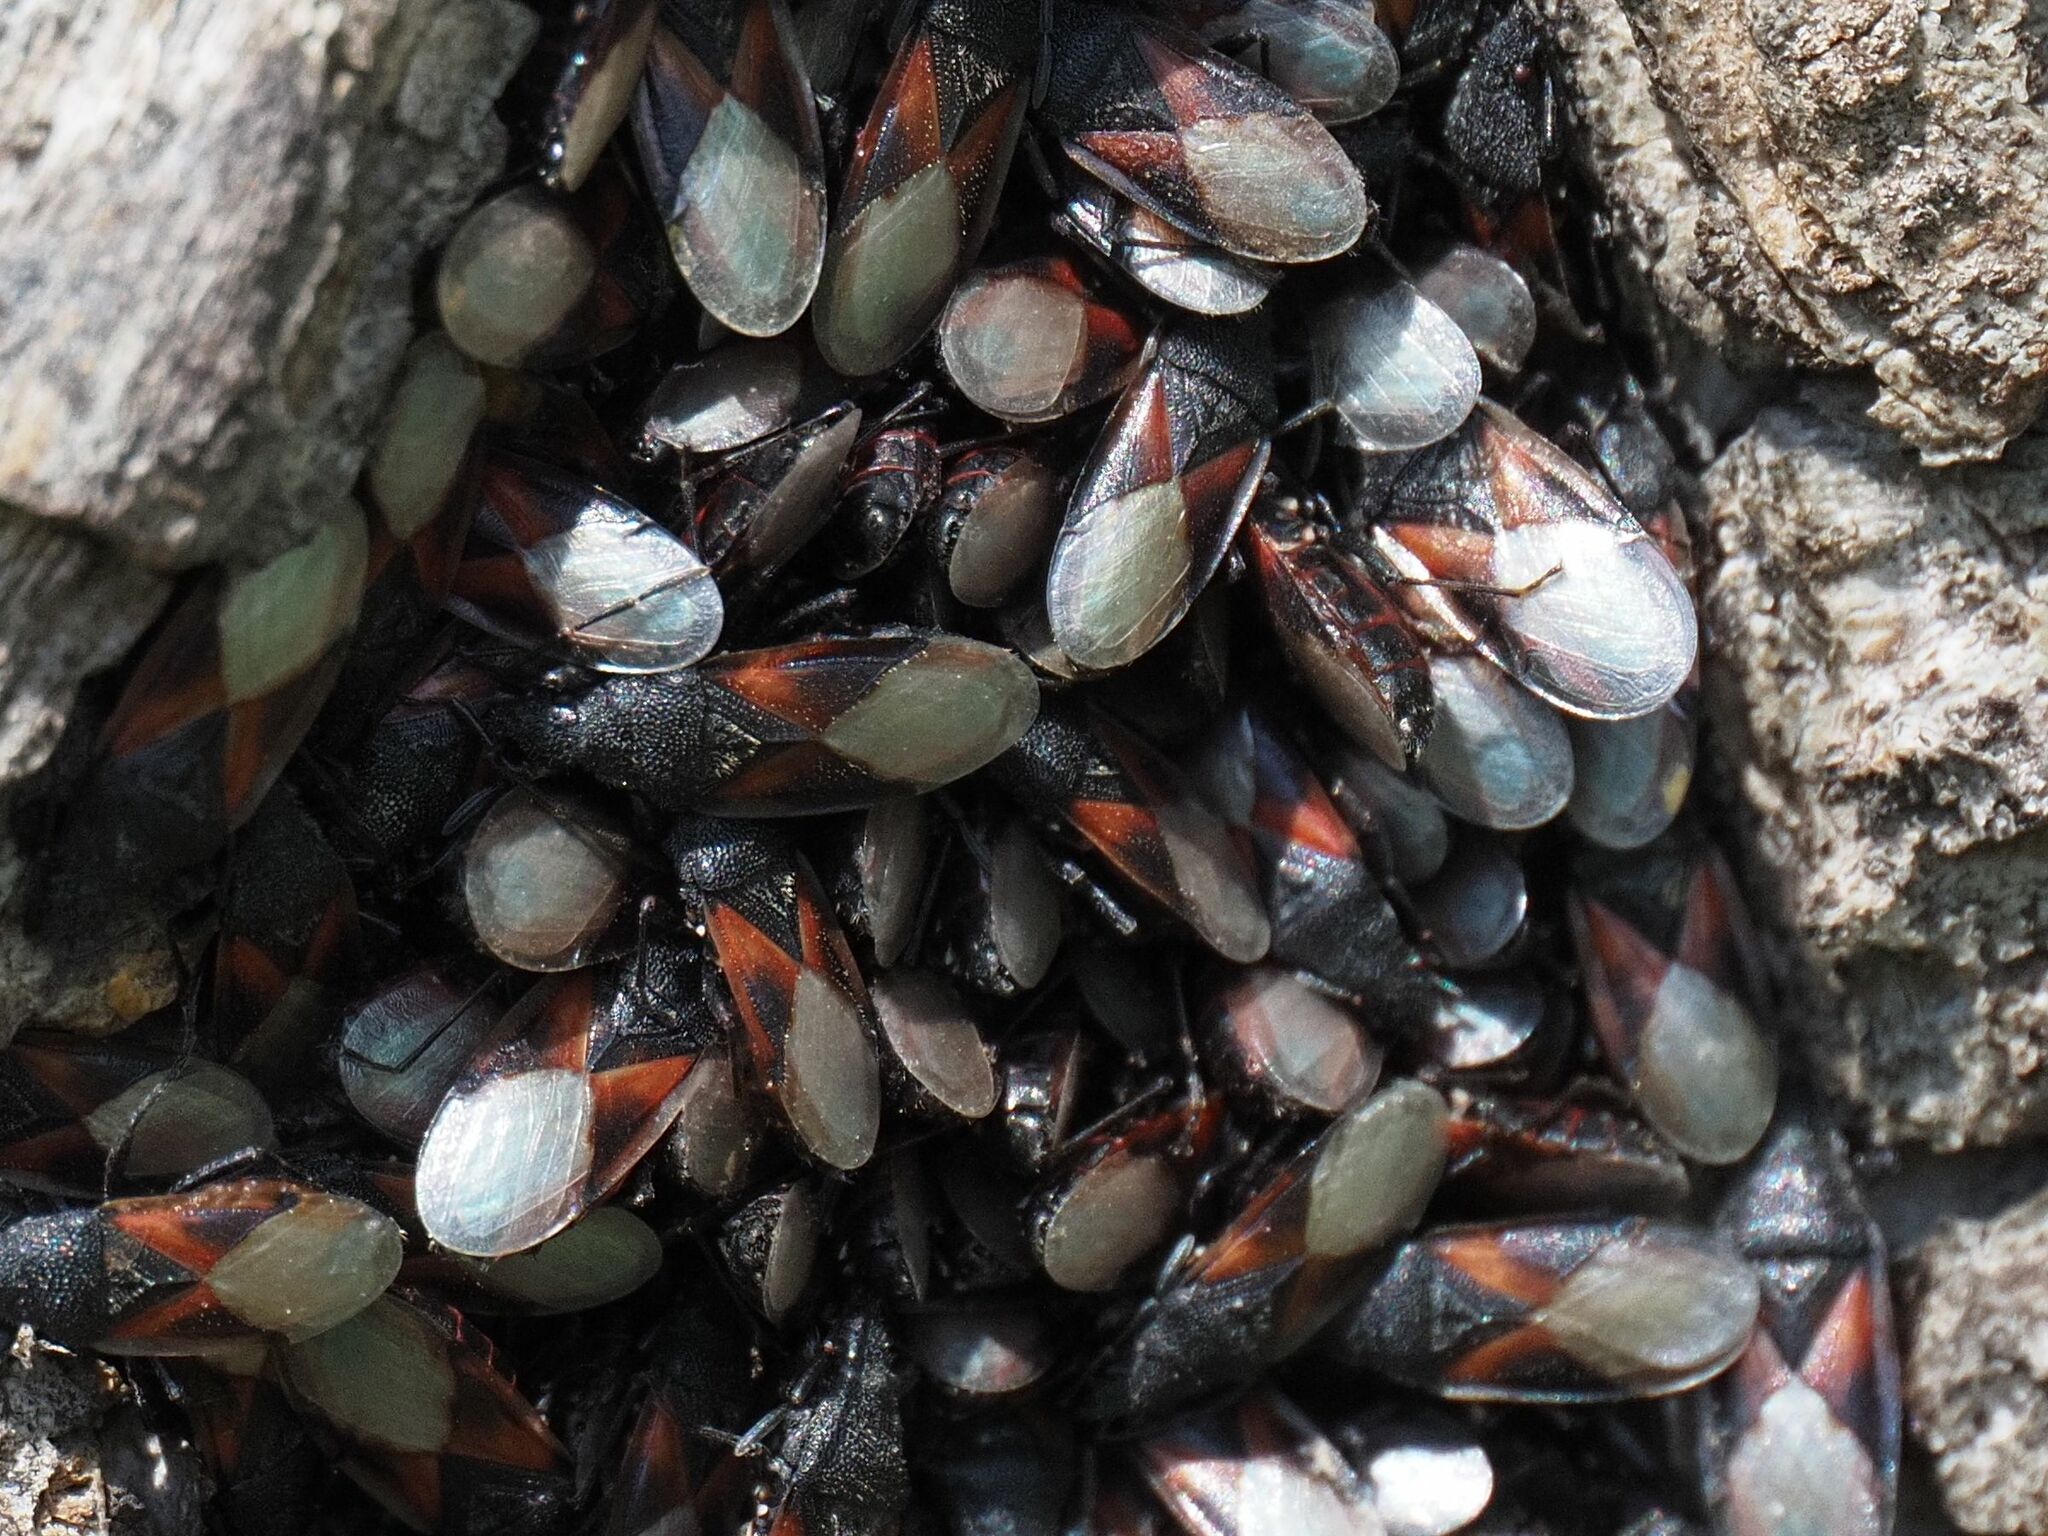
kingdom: Animalia
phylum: Arthropoda
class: Insecta
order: Hemiptera
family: Oxycarenidae
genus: Oxycarenus
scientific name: Oxycarenus lavaterae
